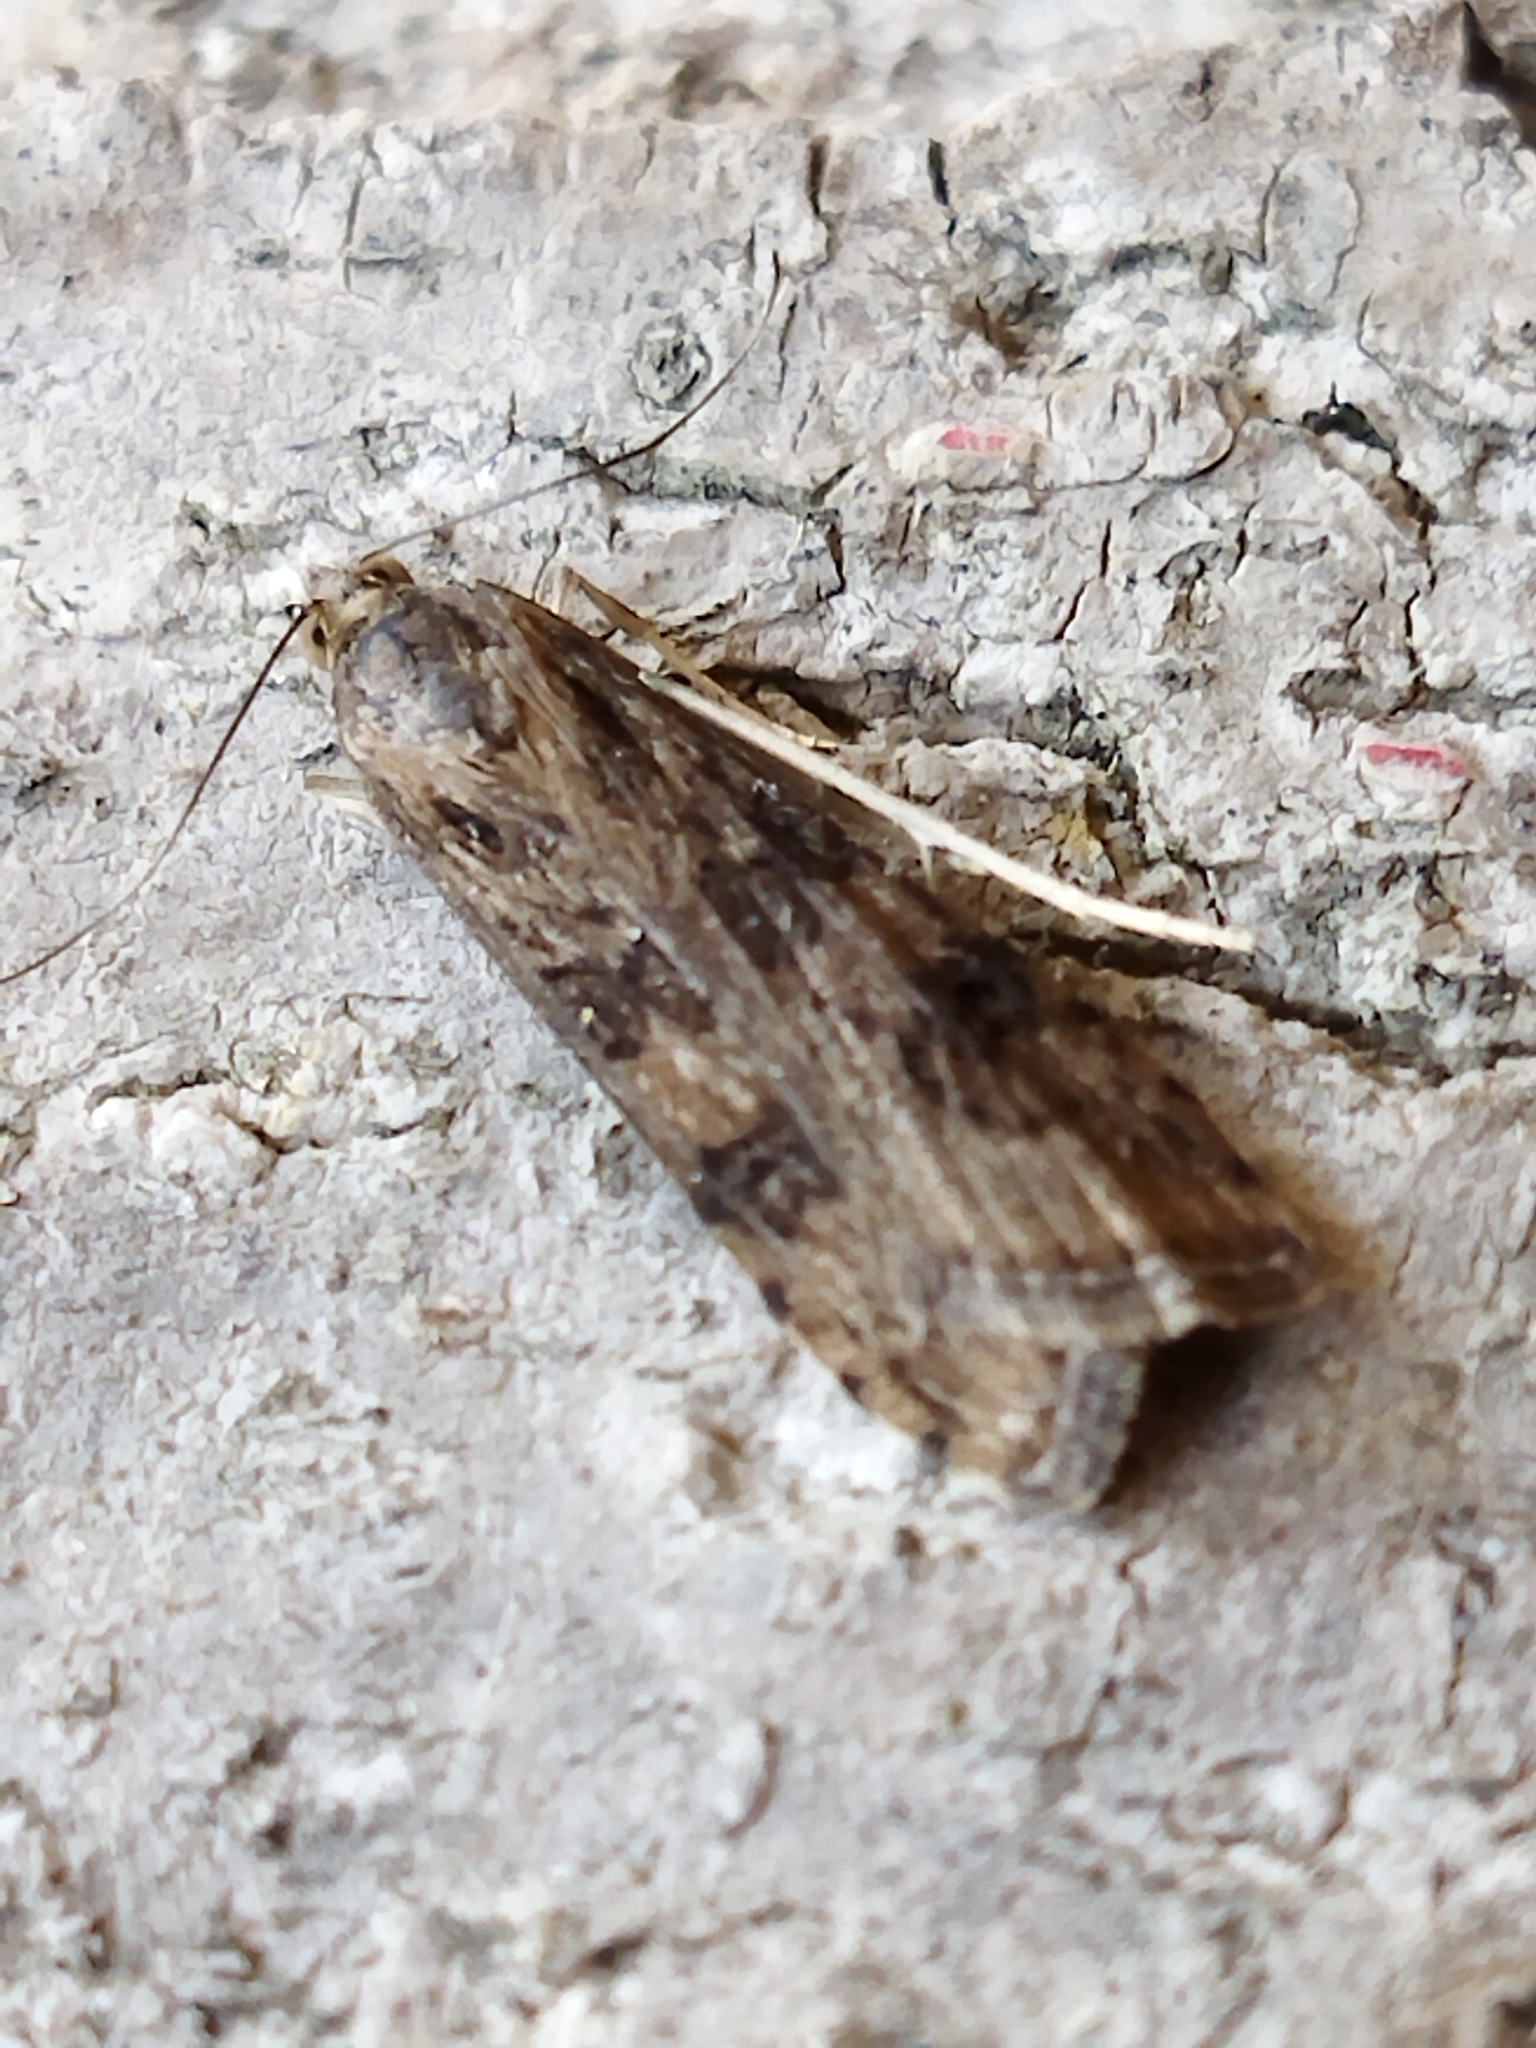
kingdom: Animalia
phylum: Arthropoda
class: Insecta
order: Lepidoptera
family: Crambidae
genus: Nomophila
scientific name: Nomophila noctuella
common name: Rush veneer
